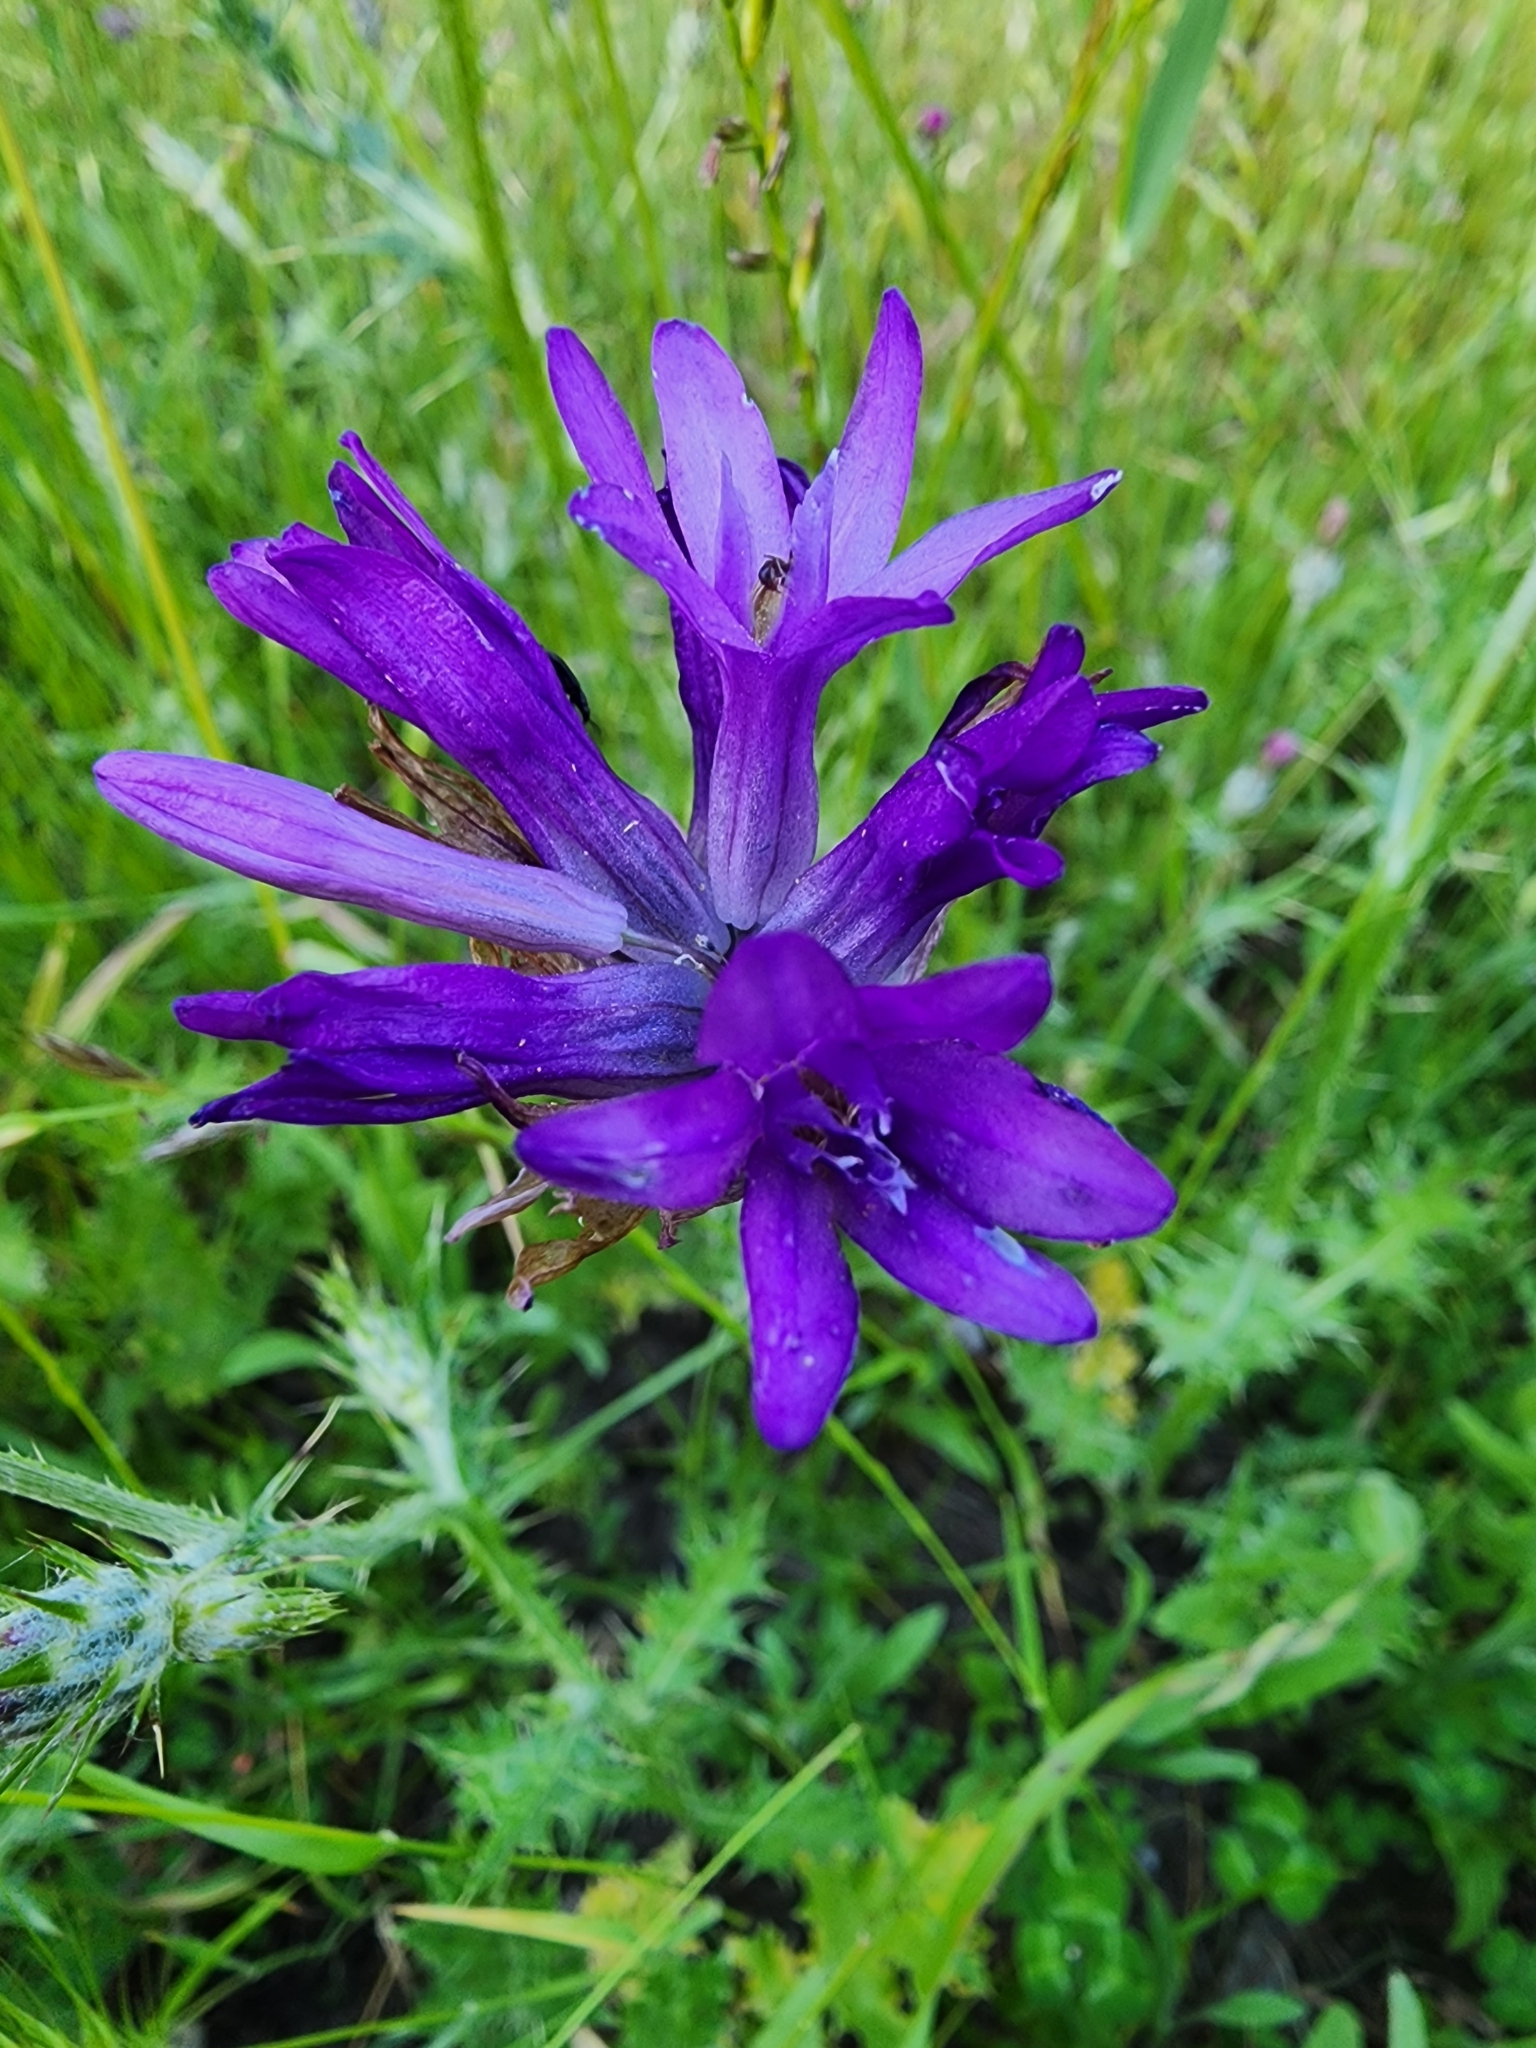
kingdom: Plantae
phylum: Tracheophyta
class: Liliopsida
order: Asparagales
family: Asparagaceae
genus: Dichelostemma
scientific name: Dichelostemma congestum
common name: Fork-tooth ookow
